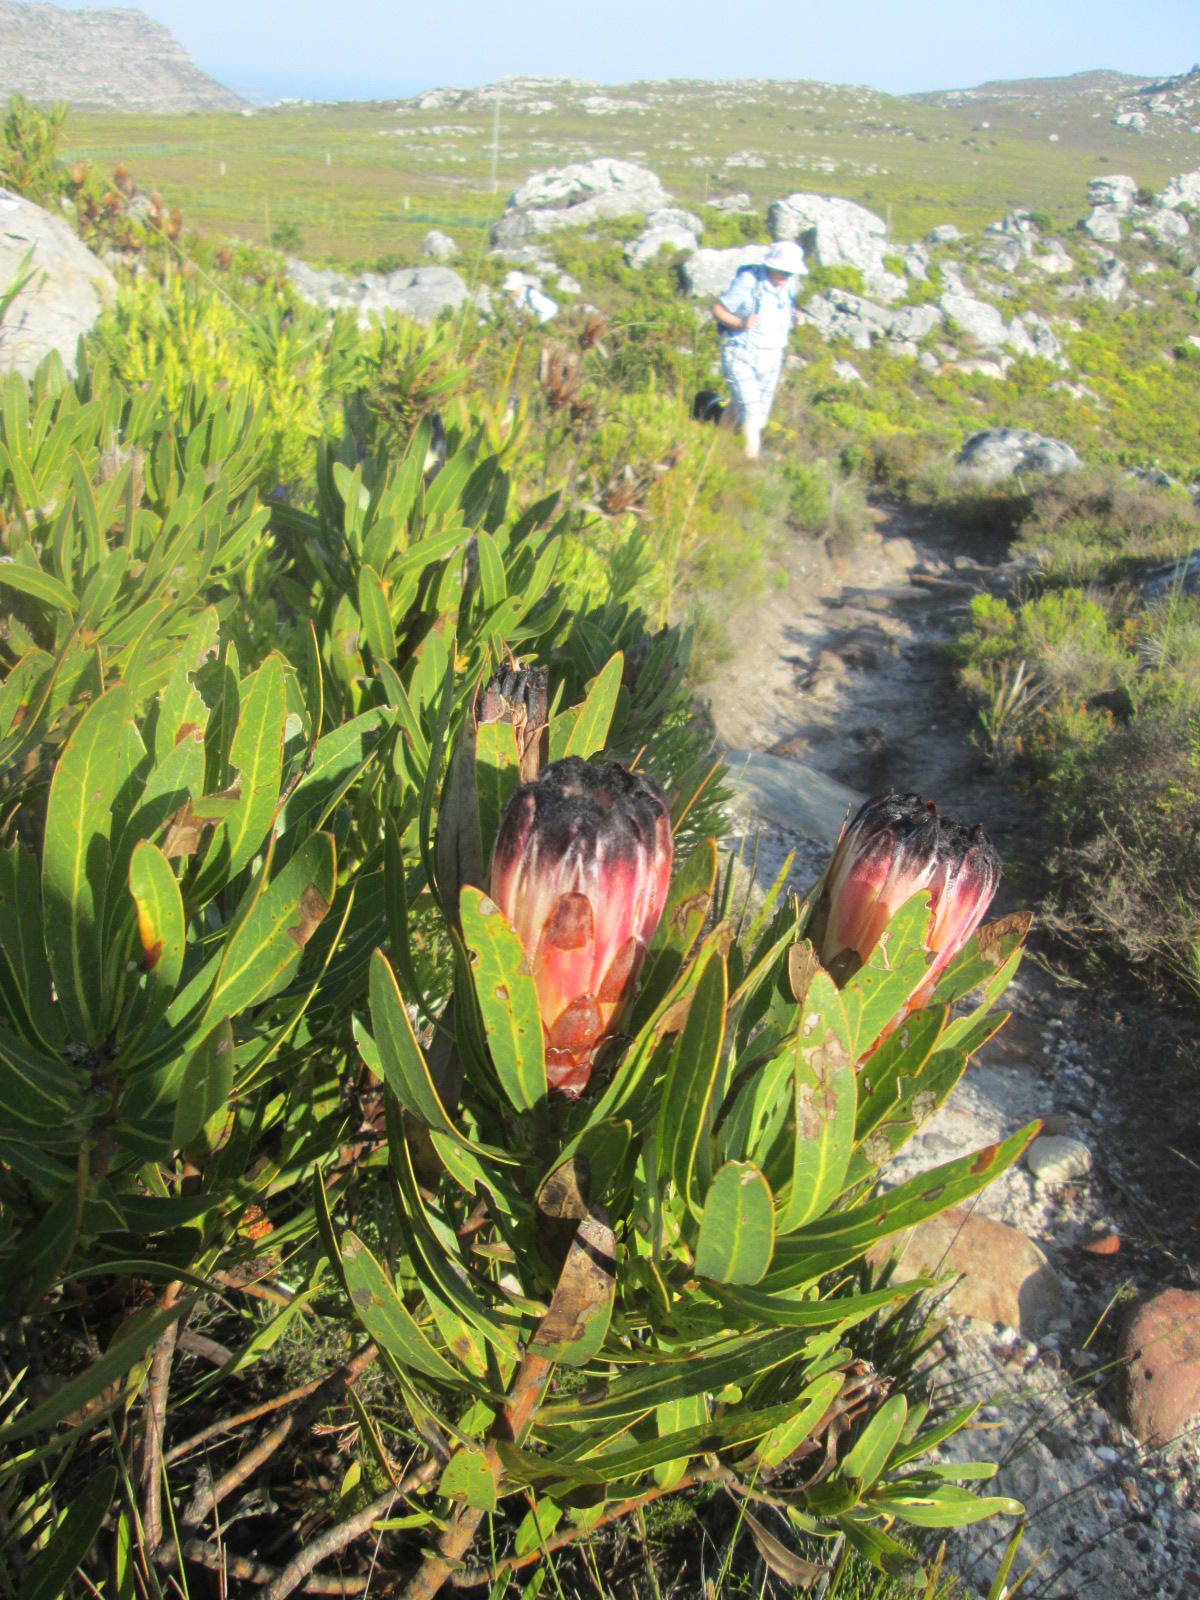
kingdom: Plantae
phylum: Tracheophyta
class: Magnoliopsida
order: Proteales
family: Proteaceae
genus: Protea
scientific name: Protea lepidocarpodendron
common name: Black-bearded protea
